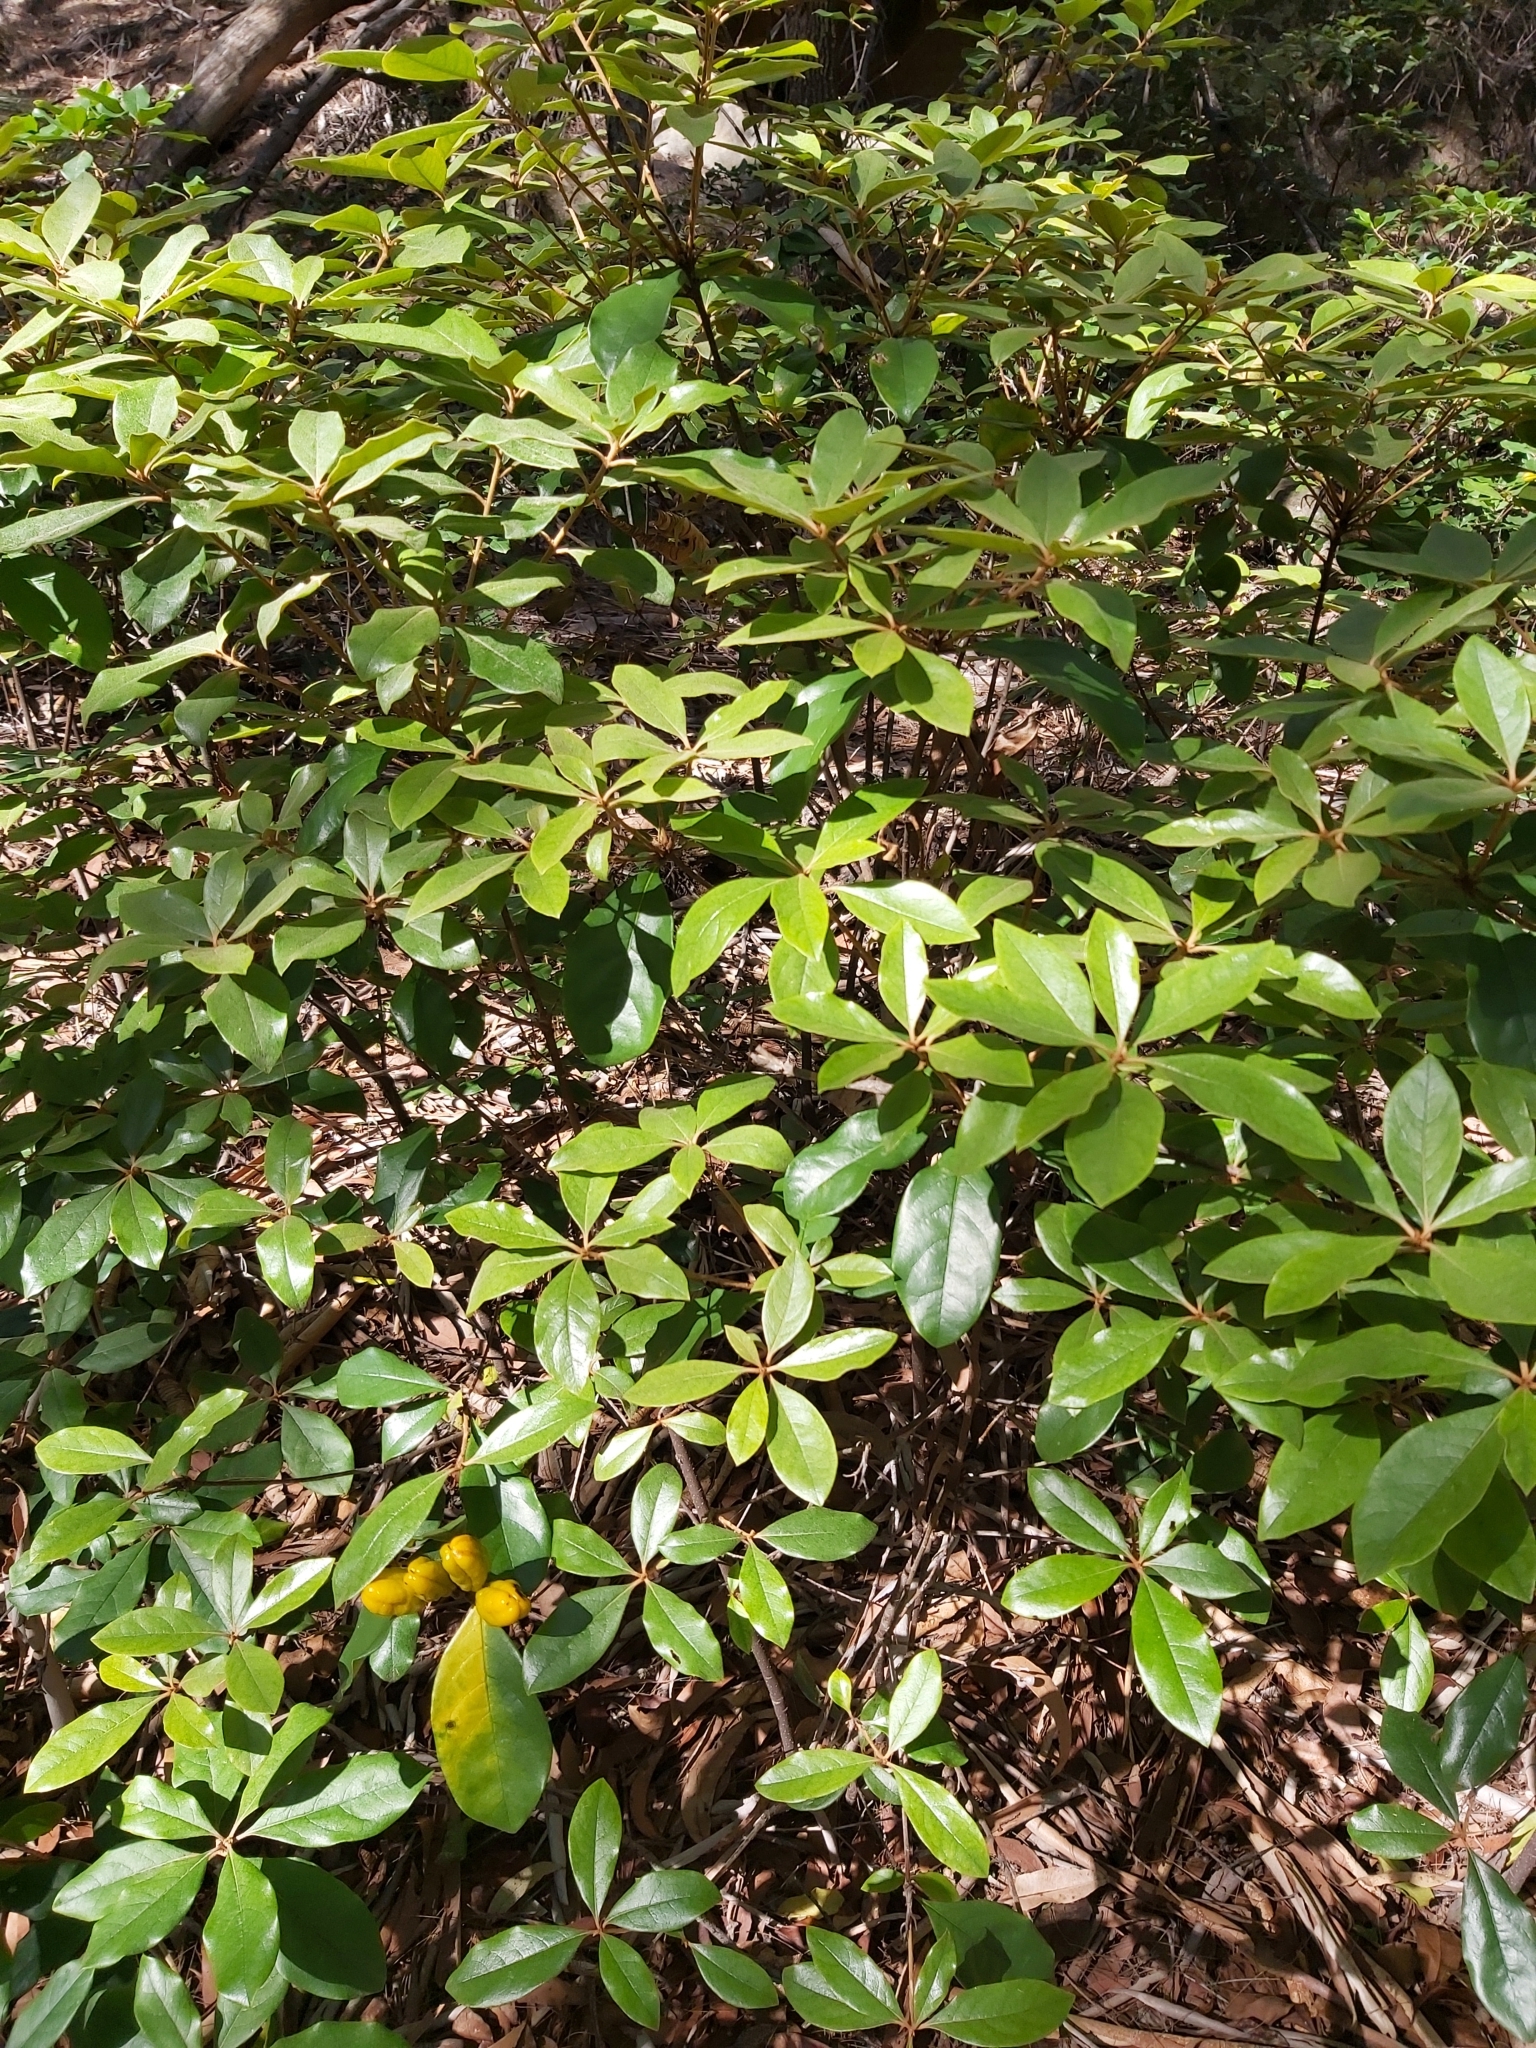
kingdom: Plantae
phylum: Tracheophyta
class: Magnoliopsida
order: Apiales
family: Pittosporaceae
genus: Pittosporum
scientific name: Pittosporum revolutum
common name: Brisbane-laurel
